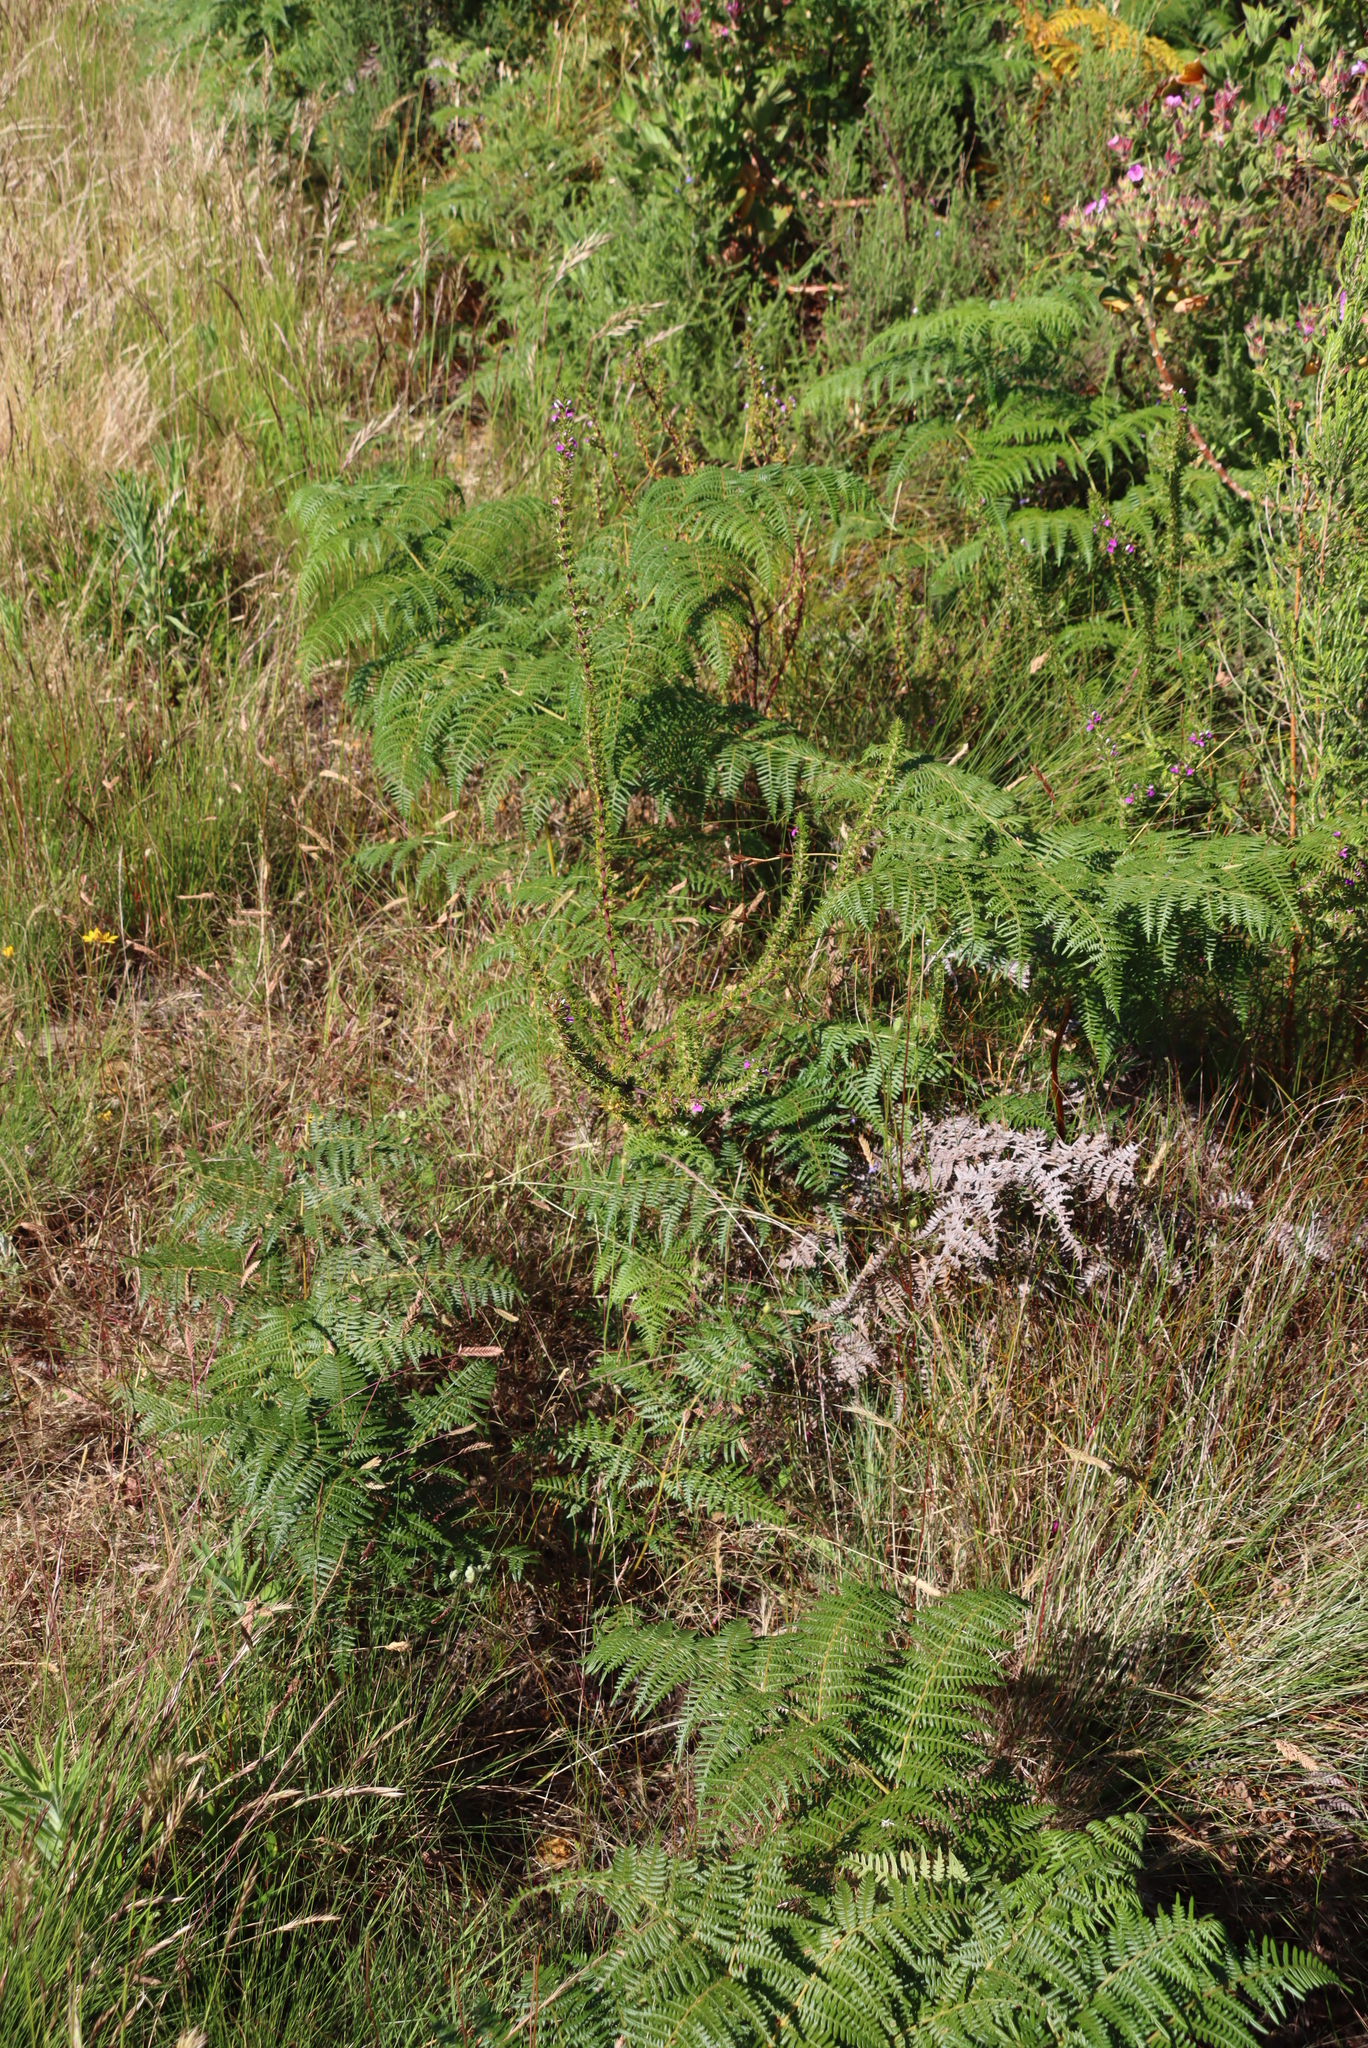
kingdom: Plantae
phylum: Tracheophyta
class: Polypodiopsida
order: Polypodiales
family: Dennstaedtiaceae
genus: Pteridium
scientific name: Pteridium aquilinum
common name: Bracken
